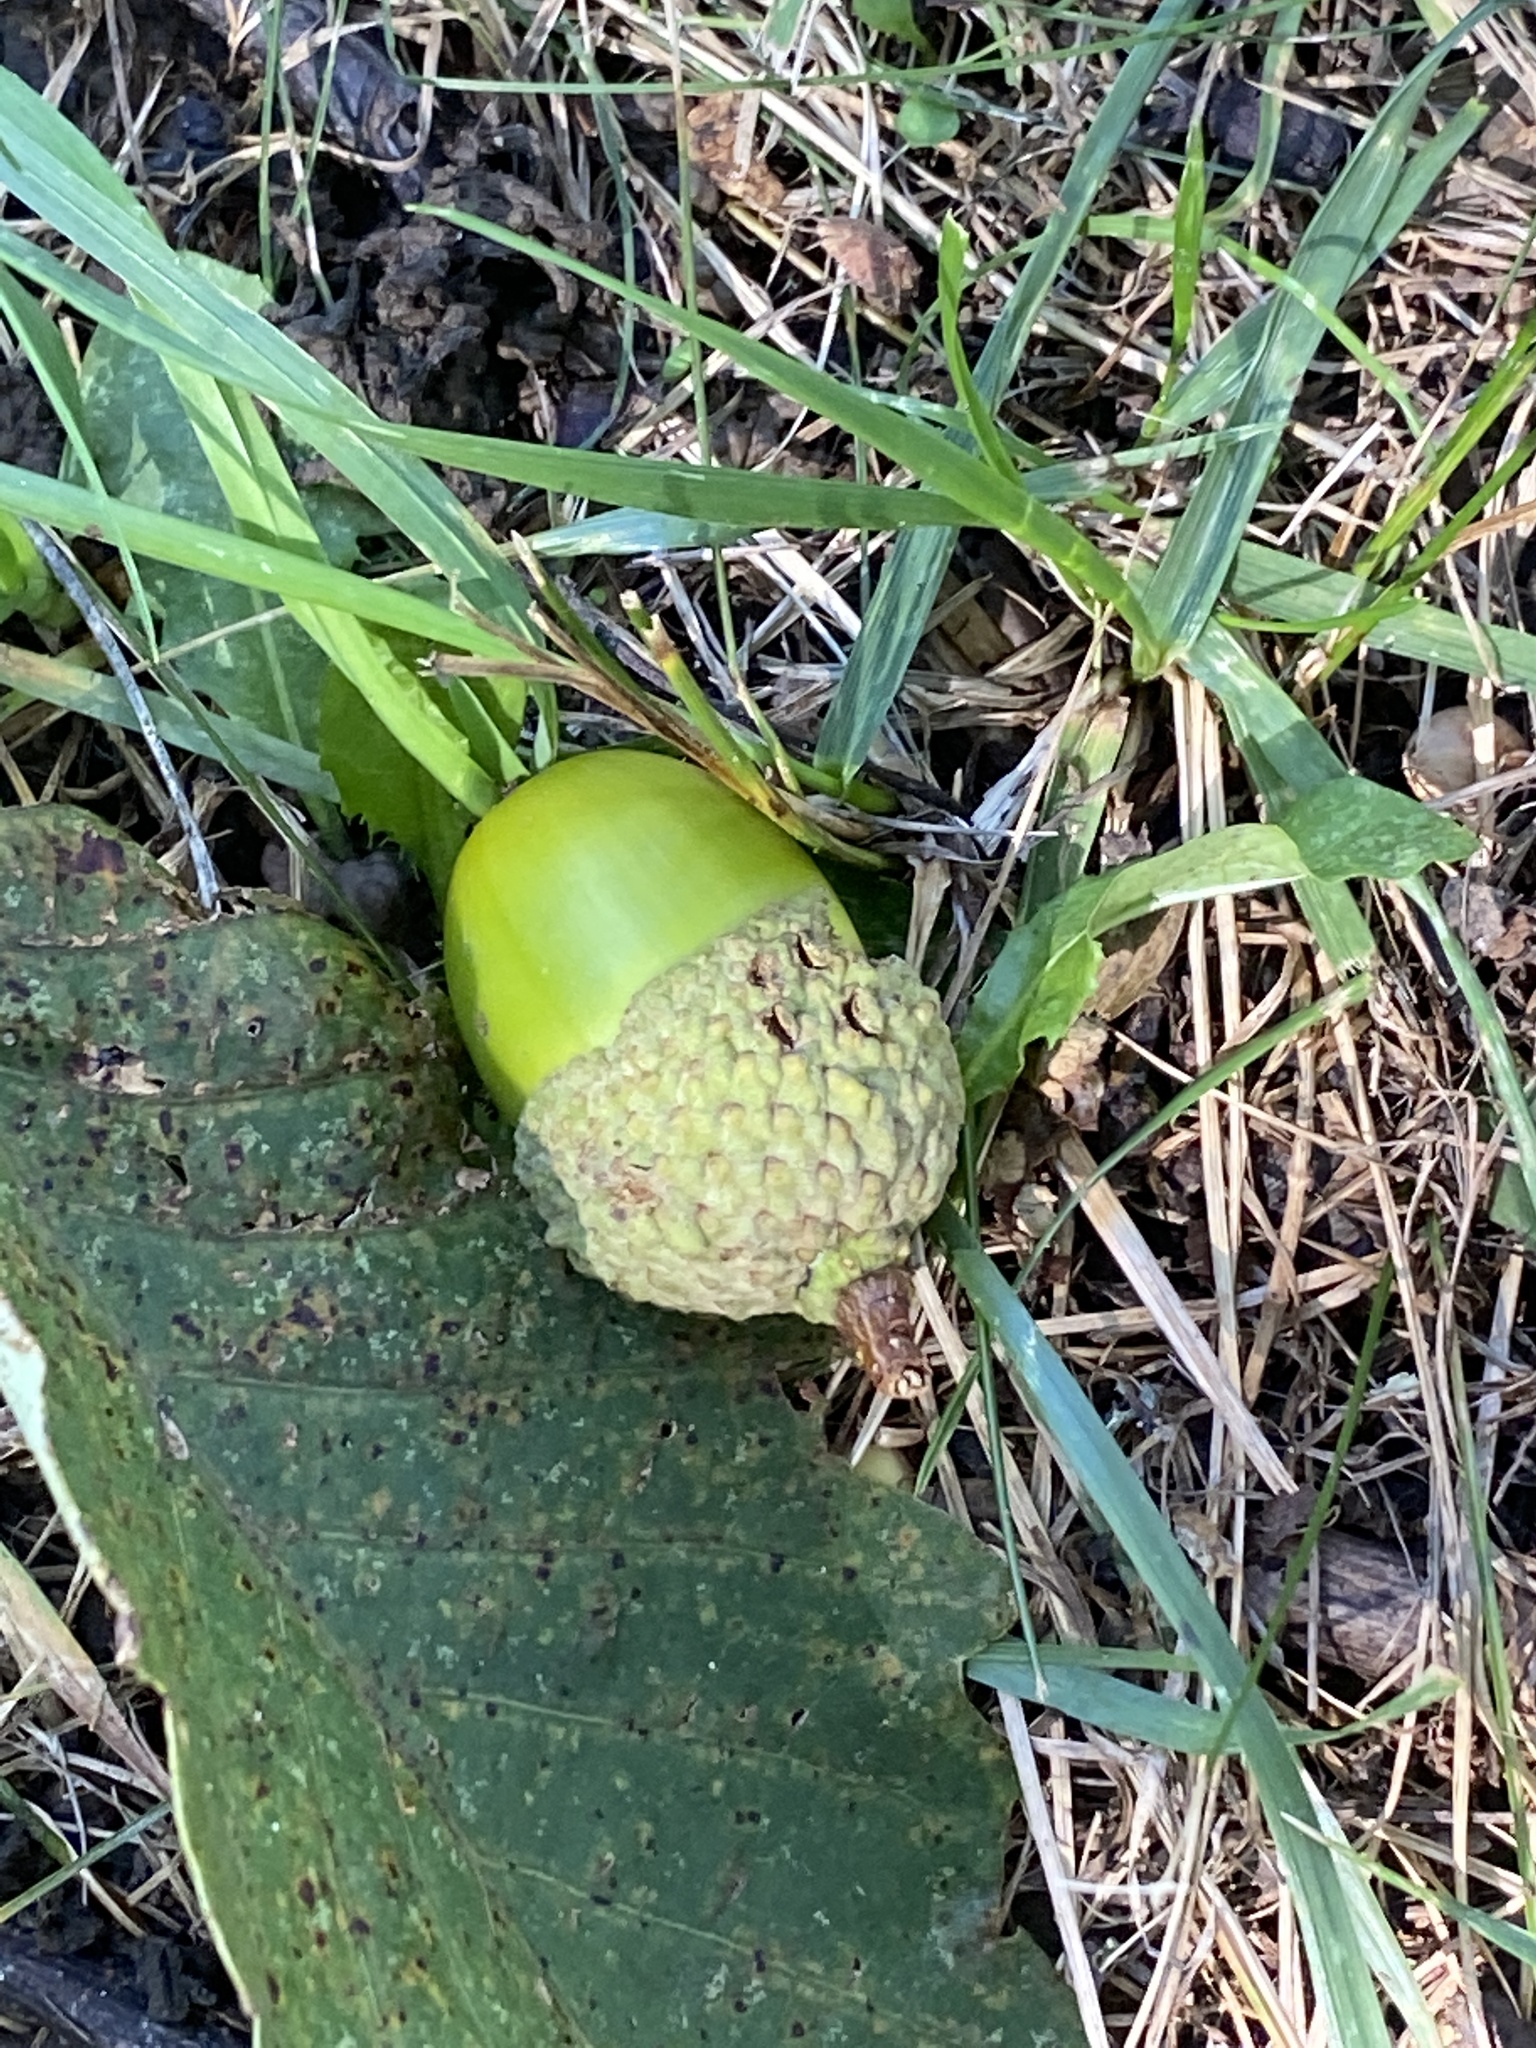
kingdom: Plantae
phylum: Tracheophyta
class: Magnoliopsida
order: Fagales
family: Fagaceae
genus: Quercus
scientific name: Quercus montana
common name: Chestnut oak
